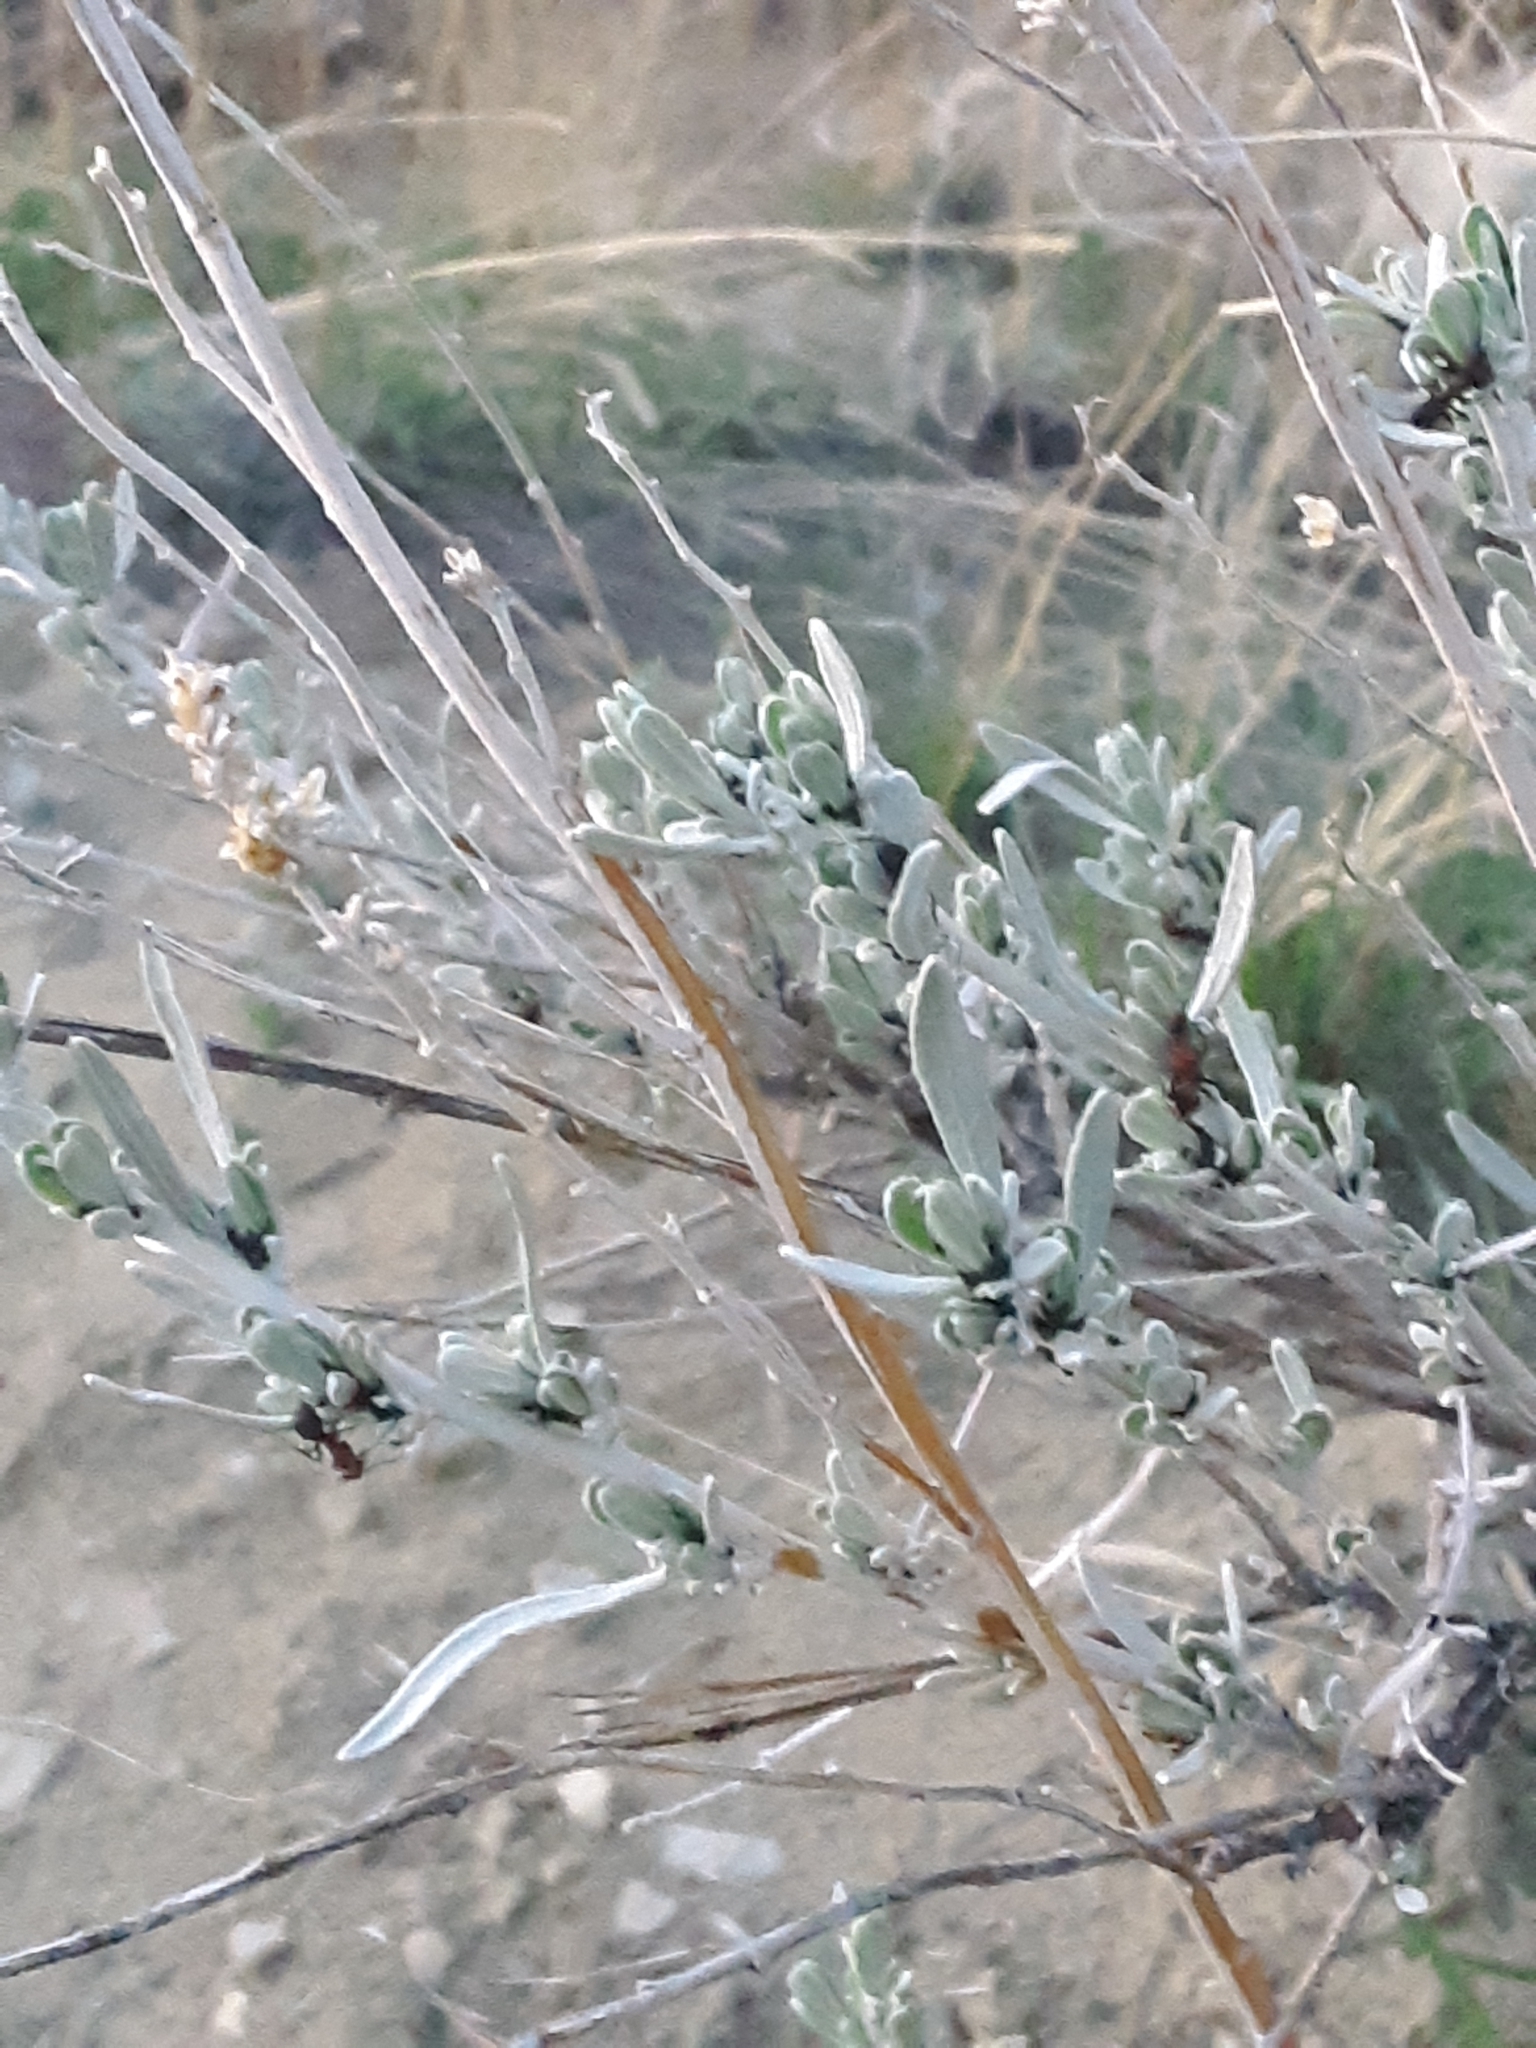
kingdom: Plantae
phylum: Tracheophyta
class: Magnoliopsida
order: Asterales
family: Asteraceae
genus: Artemisia
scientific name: Artemisia cana
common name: Silver sagebrush
